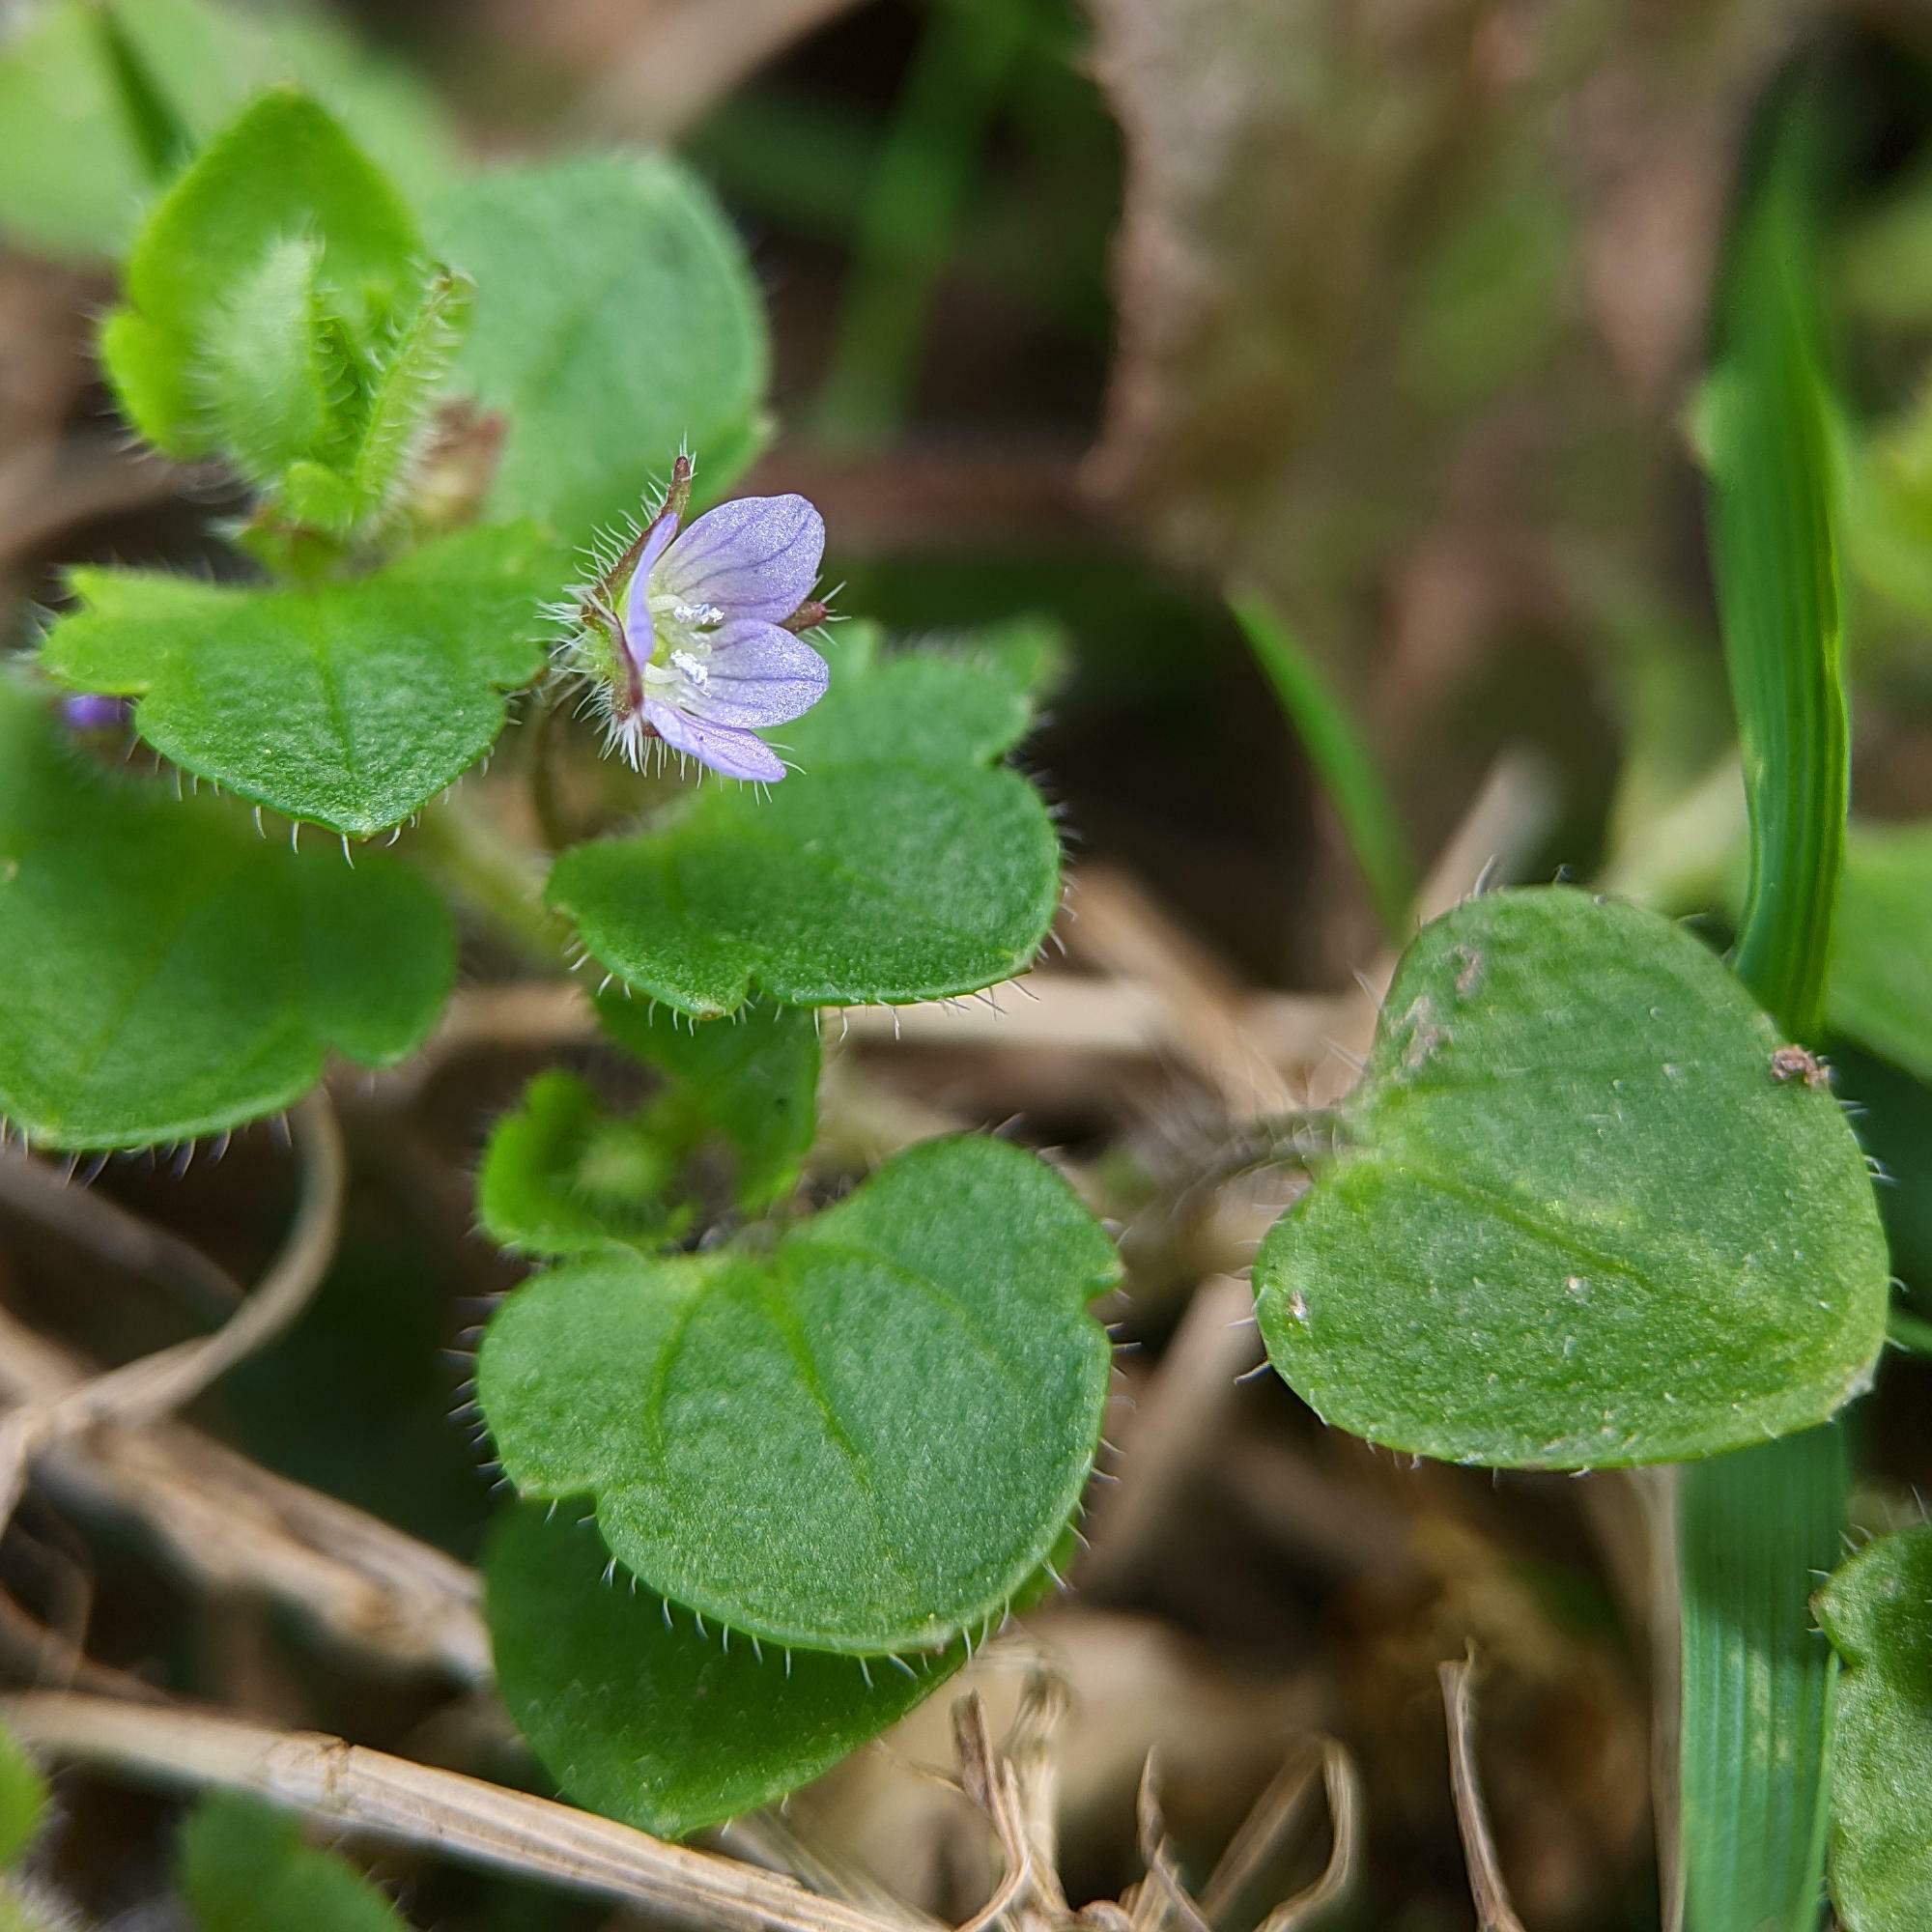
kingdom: Plantae
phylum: Tracheophyta
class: Magnoliopsida
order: Lamiales
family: Plantaginaceae
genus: Veronica
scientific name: Veronica
